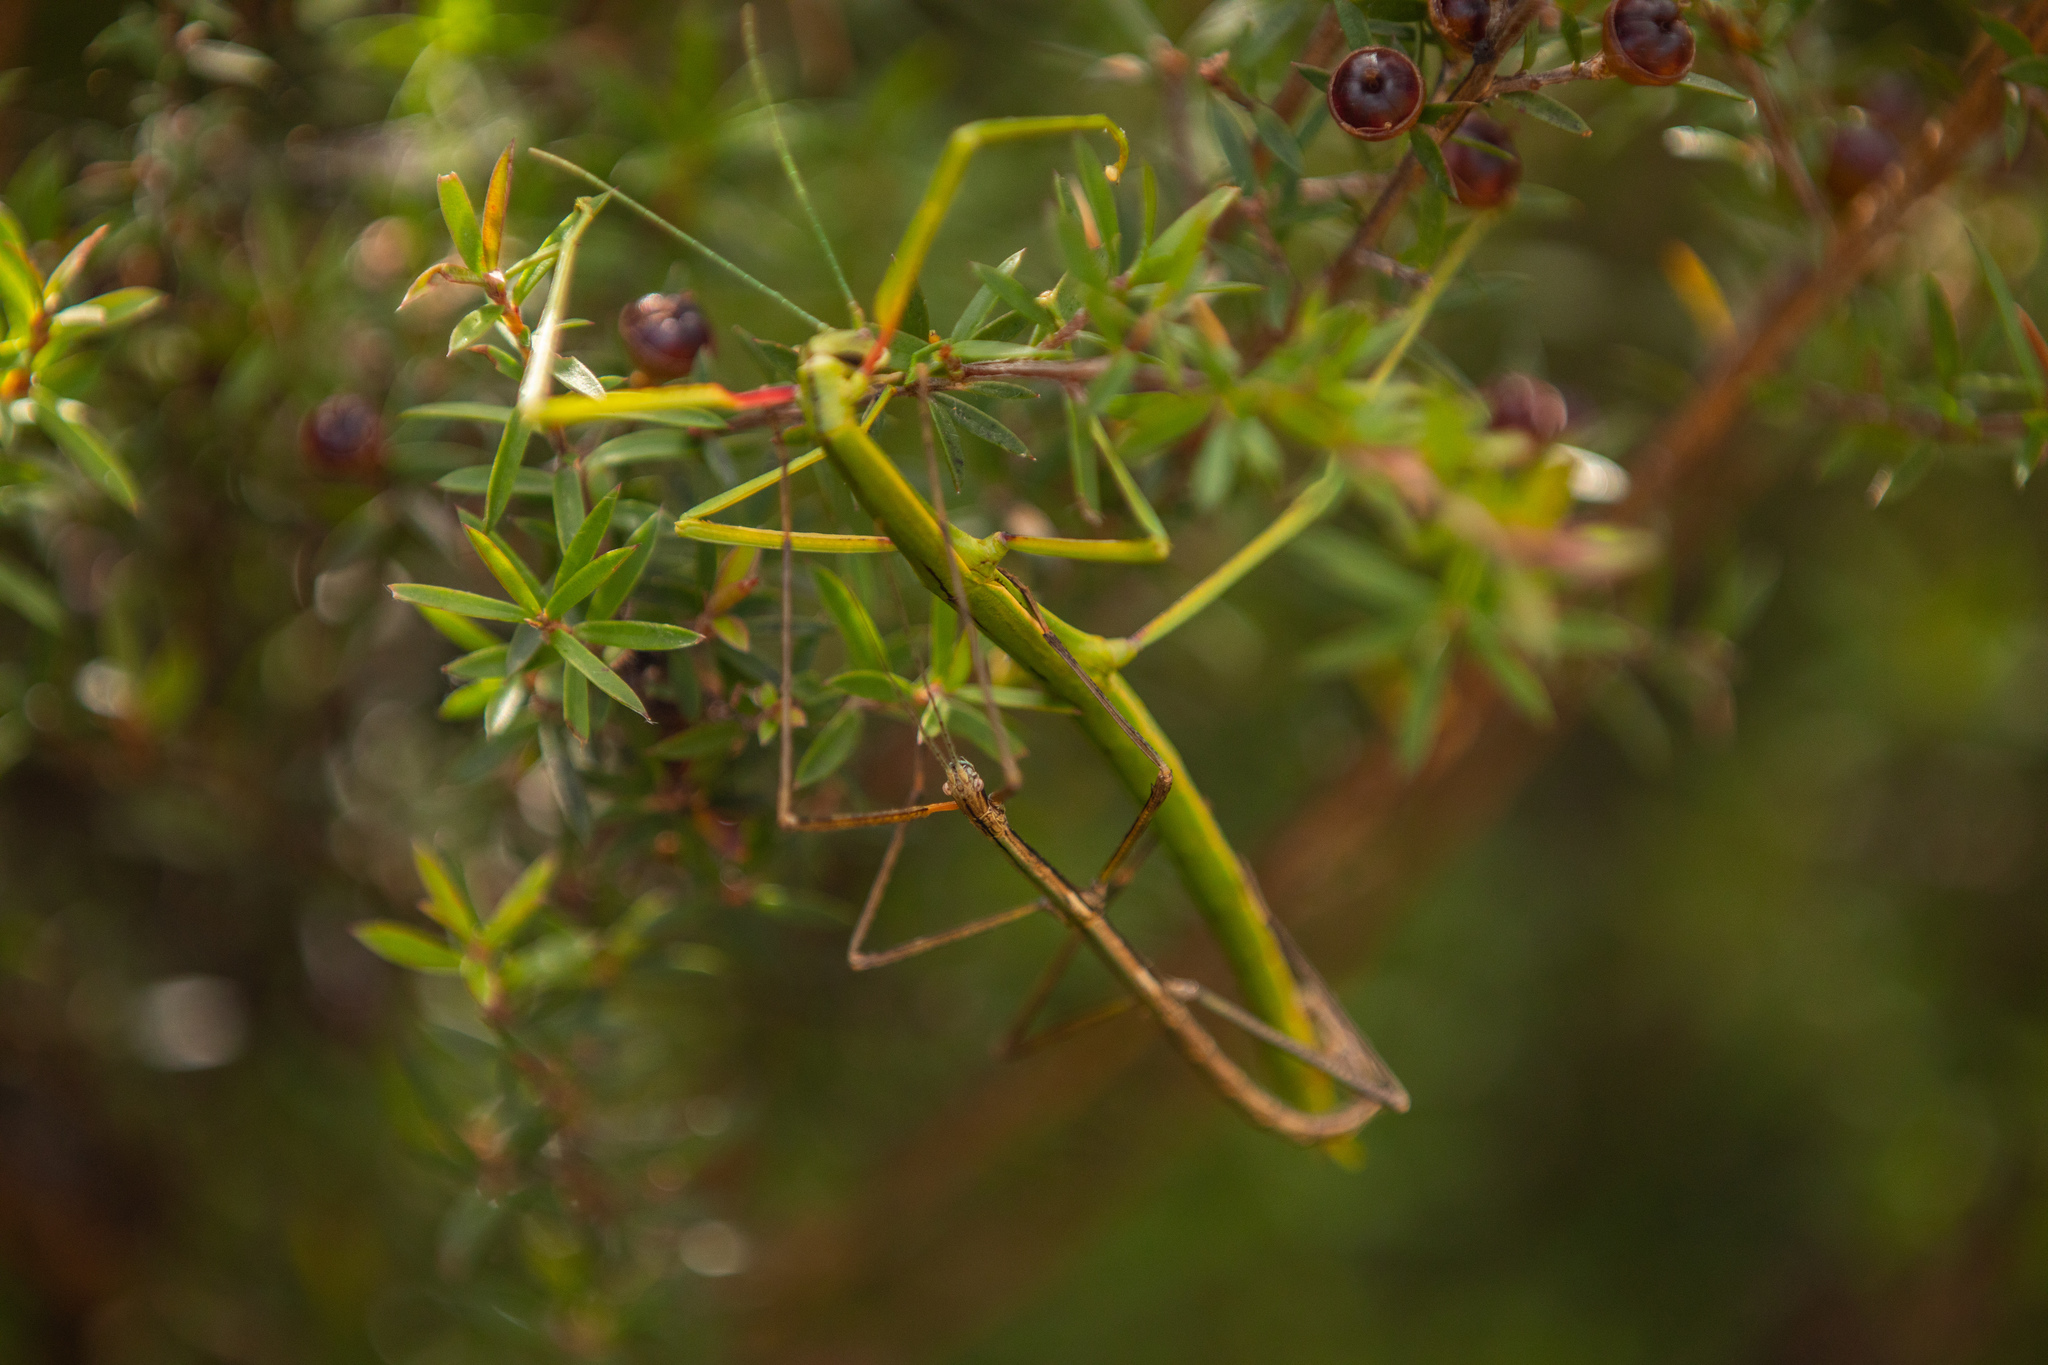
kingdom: Animalia
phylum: Arthropoda
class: Insecta
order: Phasmida
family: Phasmatidae
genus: Clitarchus
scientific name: Clitarchus hookeri
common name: Smooth stick insect
